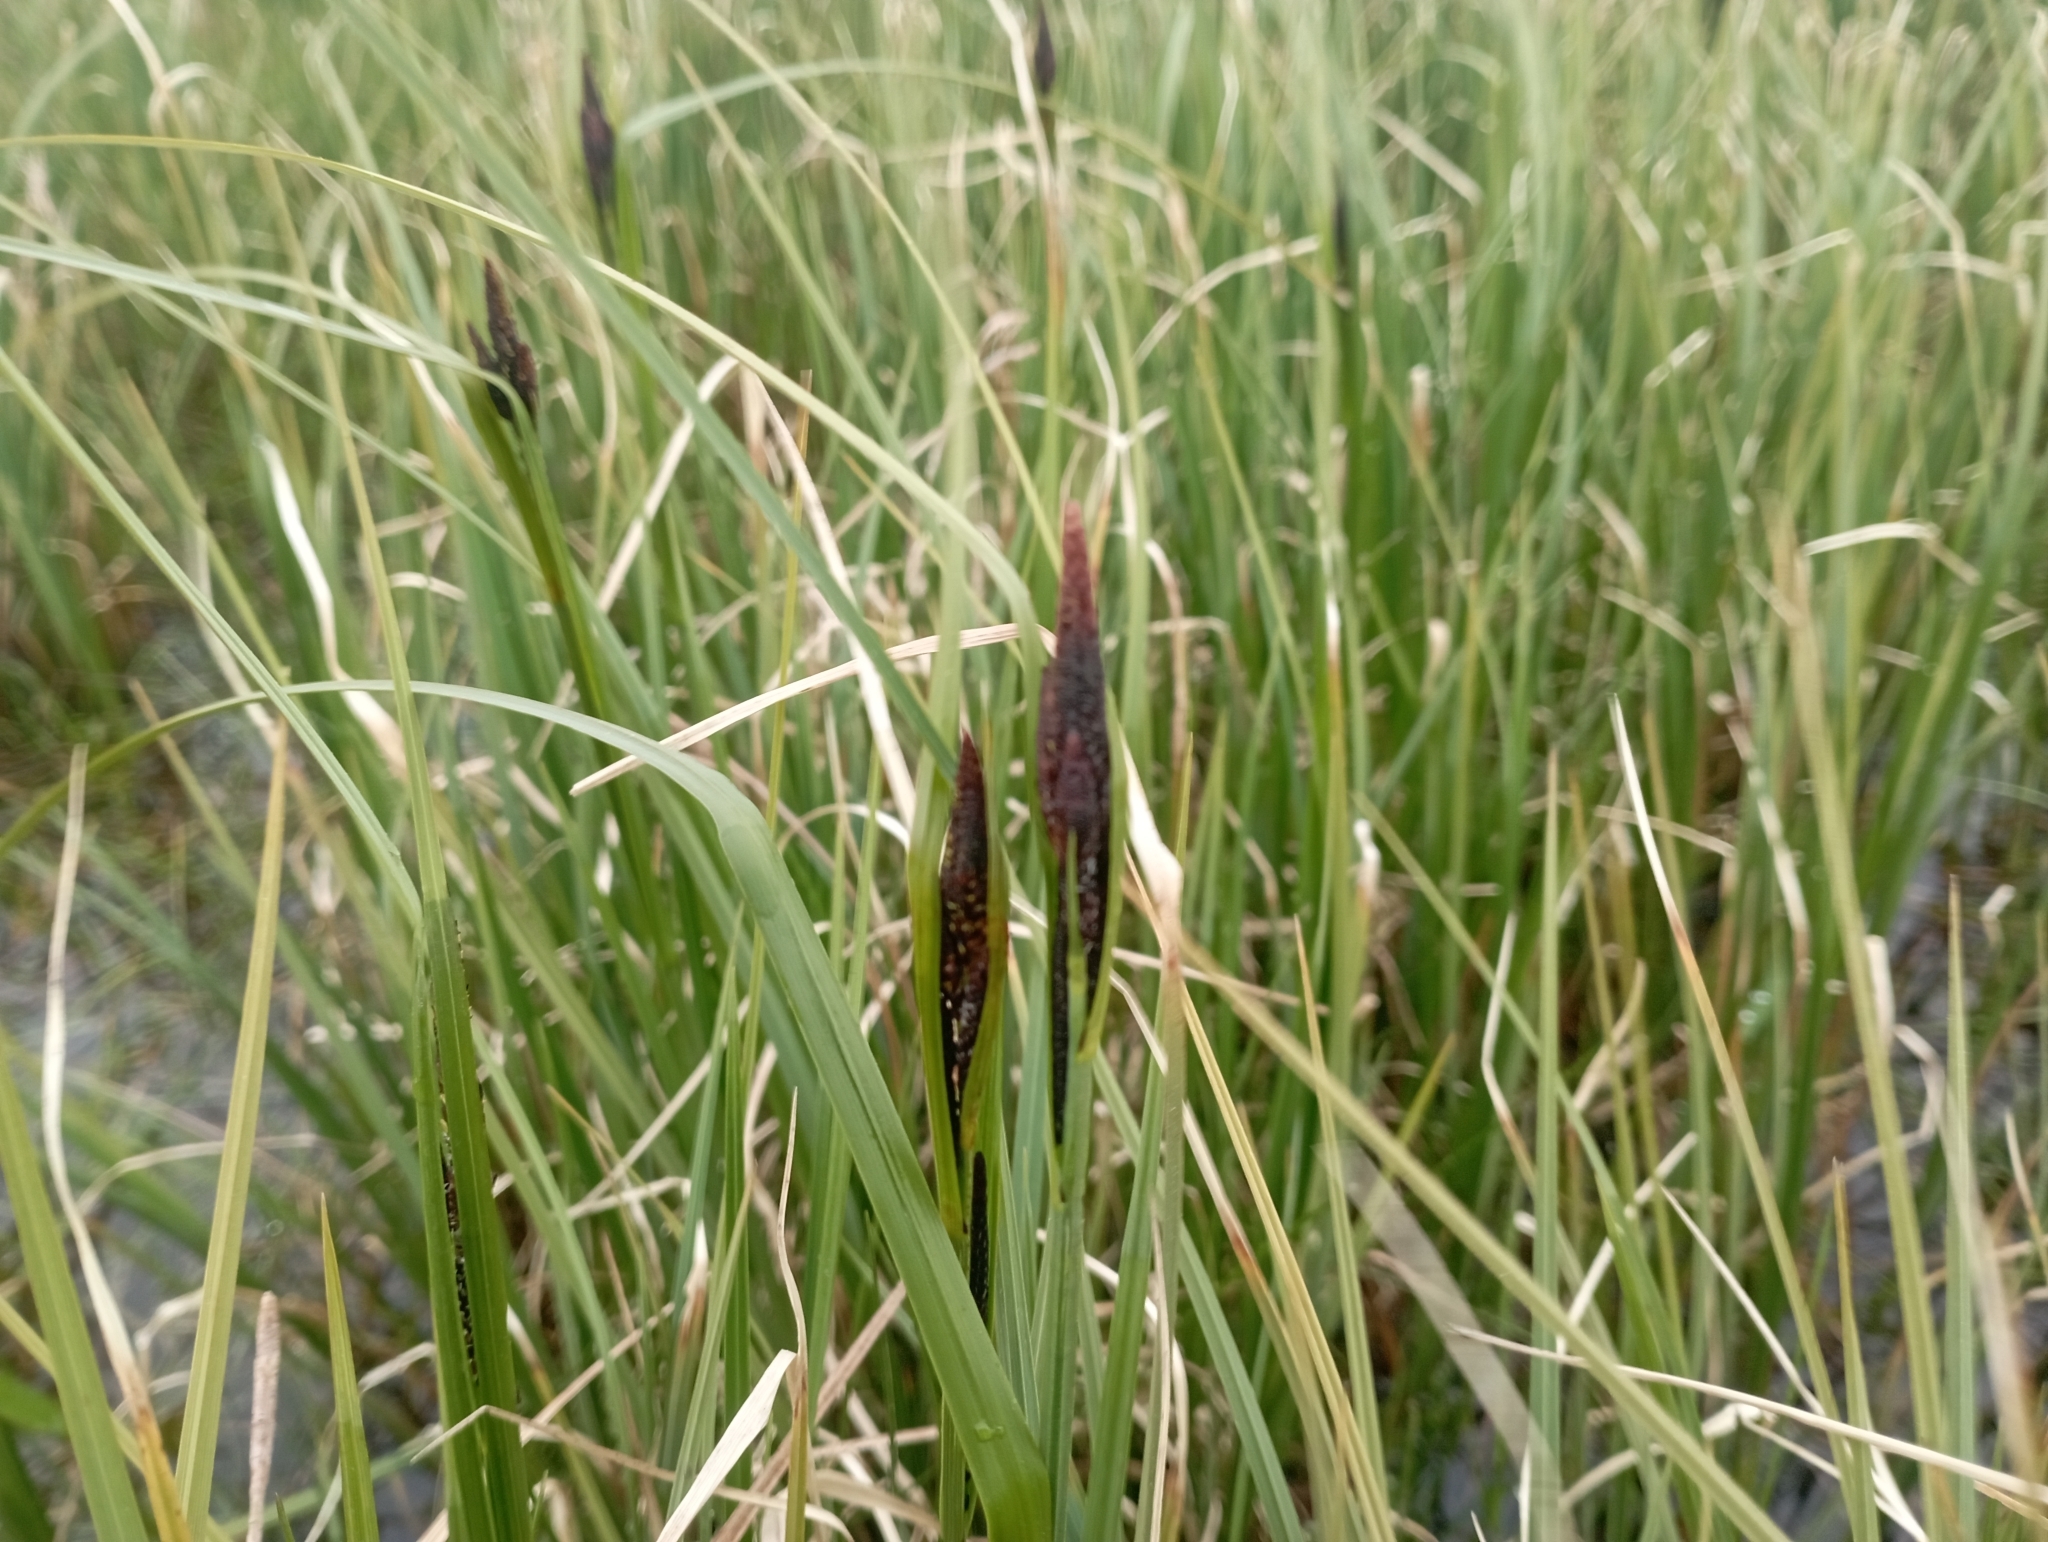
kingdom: Plantae
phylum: Tracheophyta
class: Liliopsida
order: Poales
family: Cyperaceae
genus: Carex
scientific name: Carex aquatilis
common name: Water sedge
